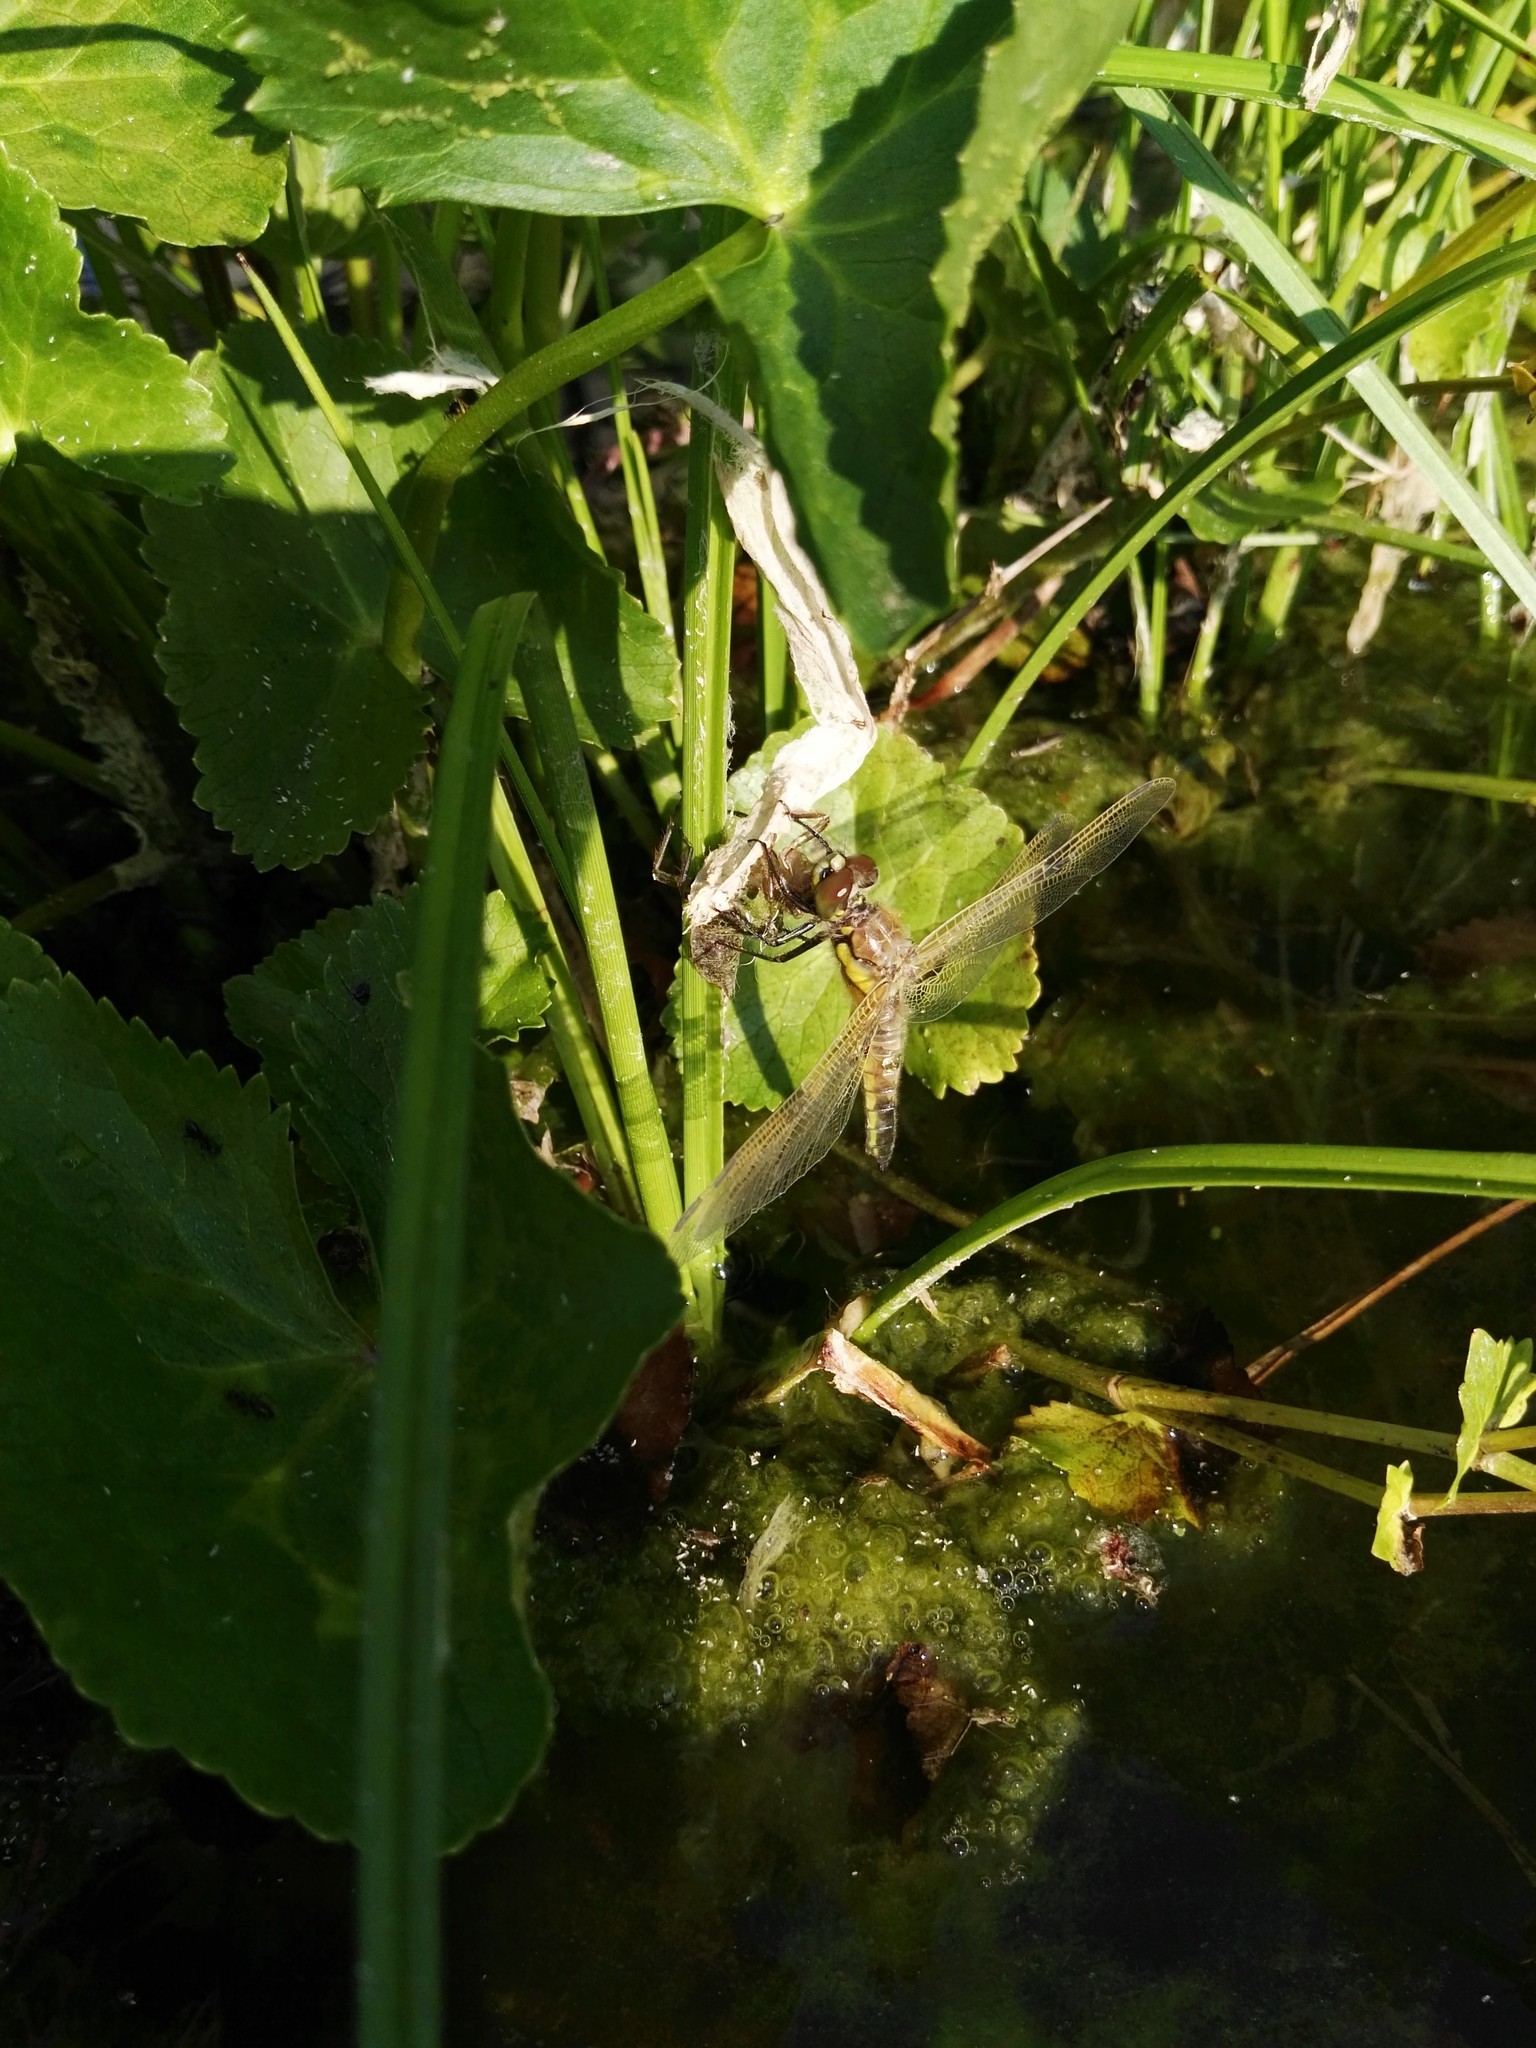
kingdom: Animalia
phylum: Arthropoda
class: Insecta
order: Odonata
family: Libellulidae
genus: Libellula
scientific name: Libellula quadrimaculata
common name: Four-spotted chaser
